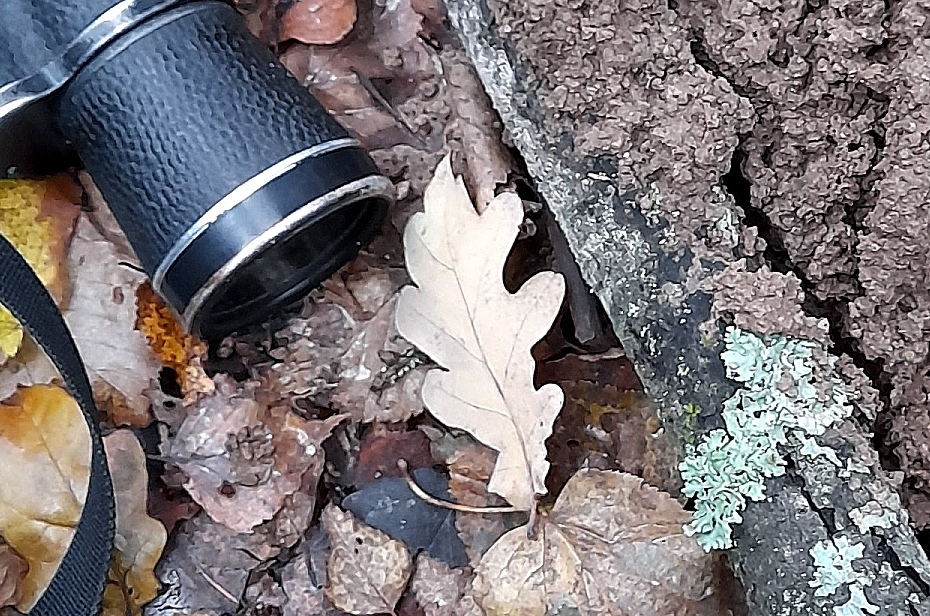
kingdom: Plantae
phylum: Tracheophyta
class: Magnoliopsida
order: Fagales
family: Fagaceae
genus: Quercus
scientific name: Quercus robur
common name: Pedunculate oak
